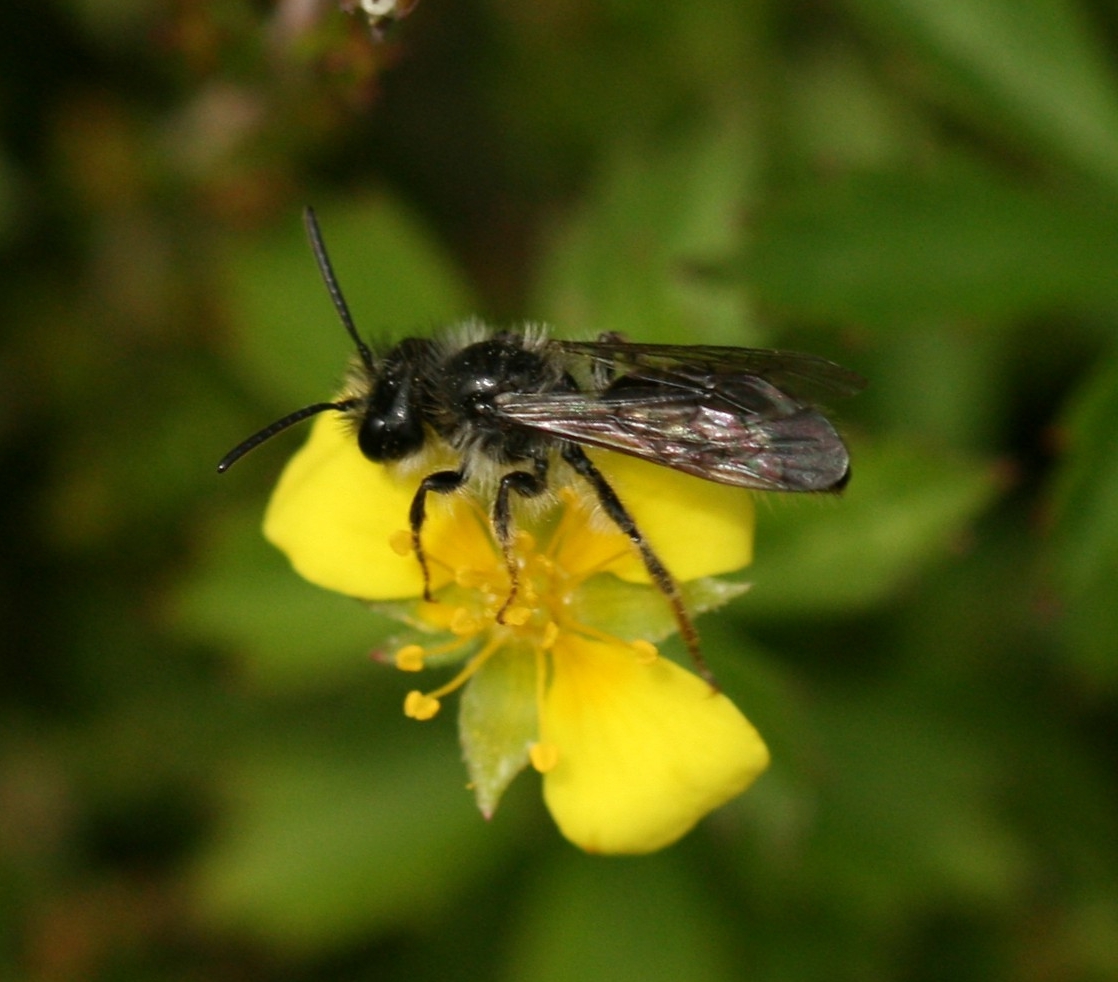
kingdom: Animalia
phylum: Arthropoda
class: Insecta
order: Hymenoptera
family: Andrenidae
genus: Andrena
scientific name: Andrena tarsata
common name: Tormentil mining bee
